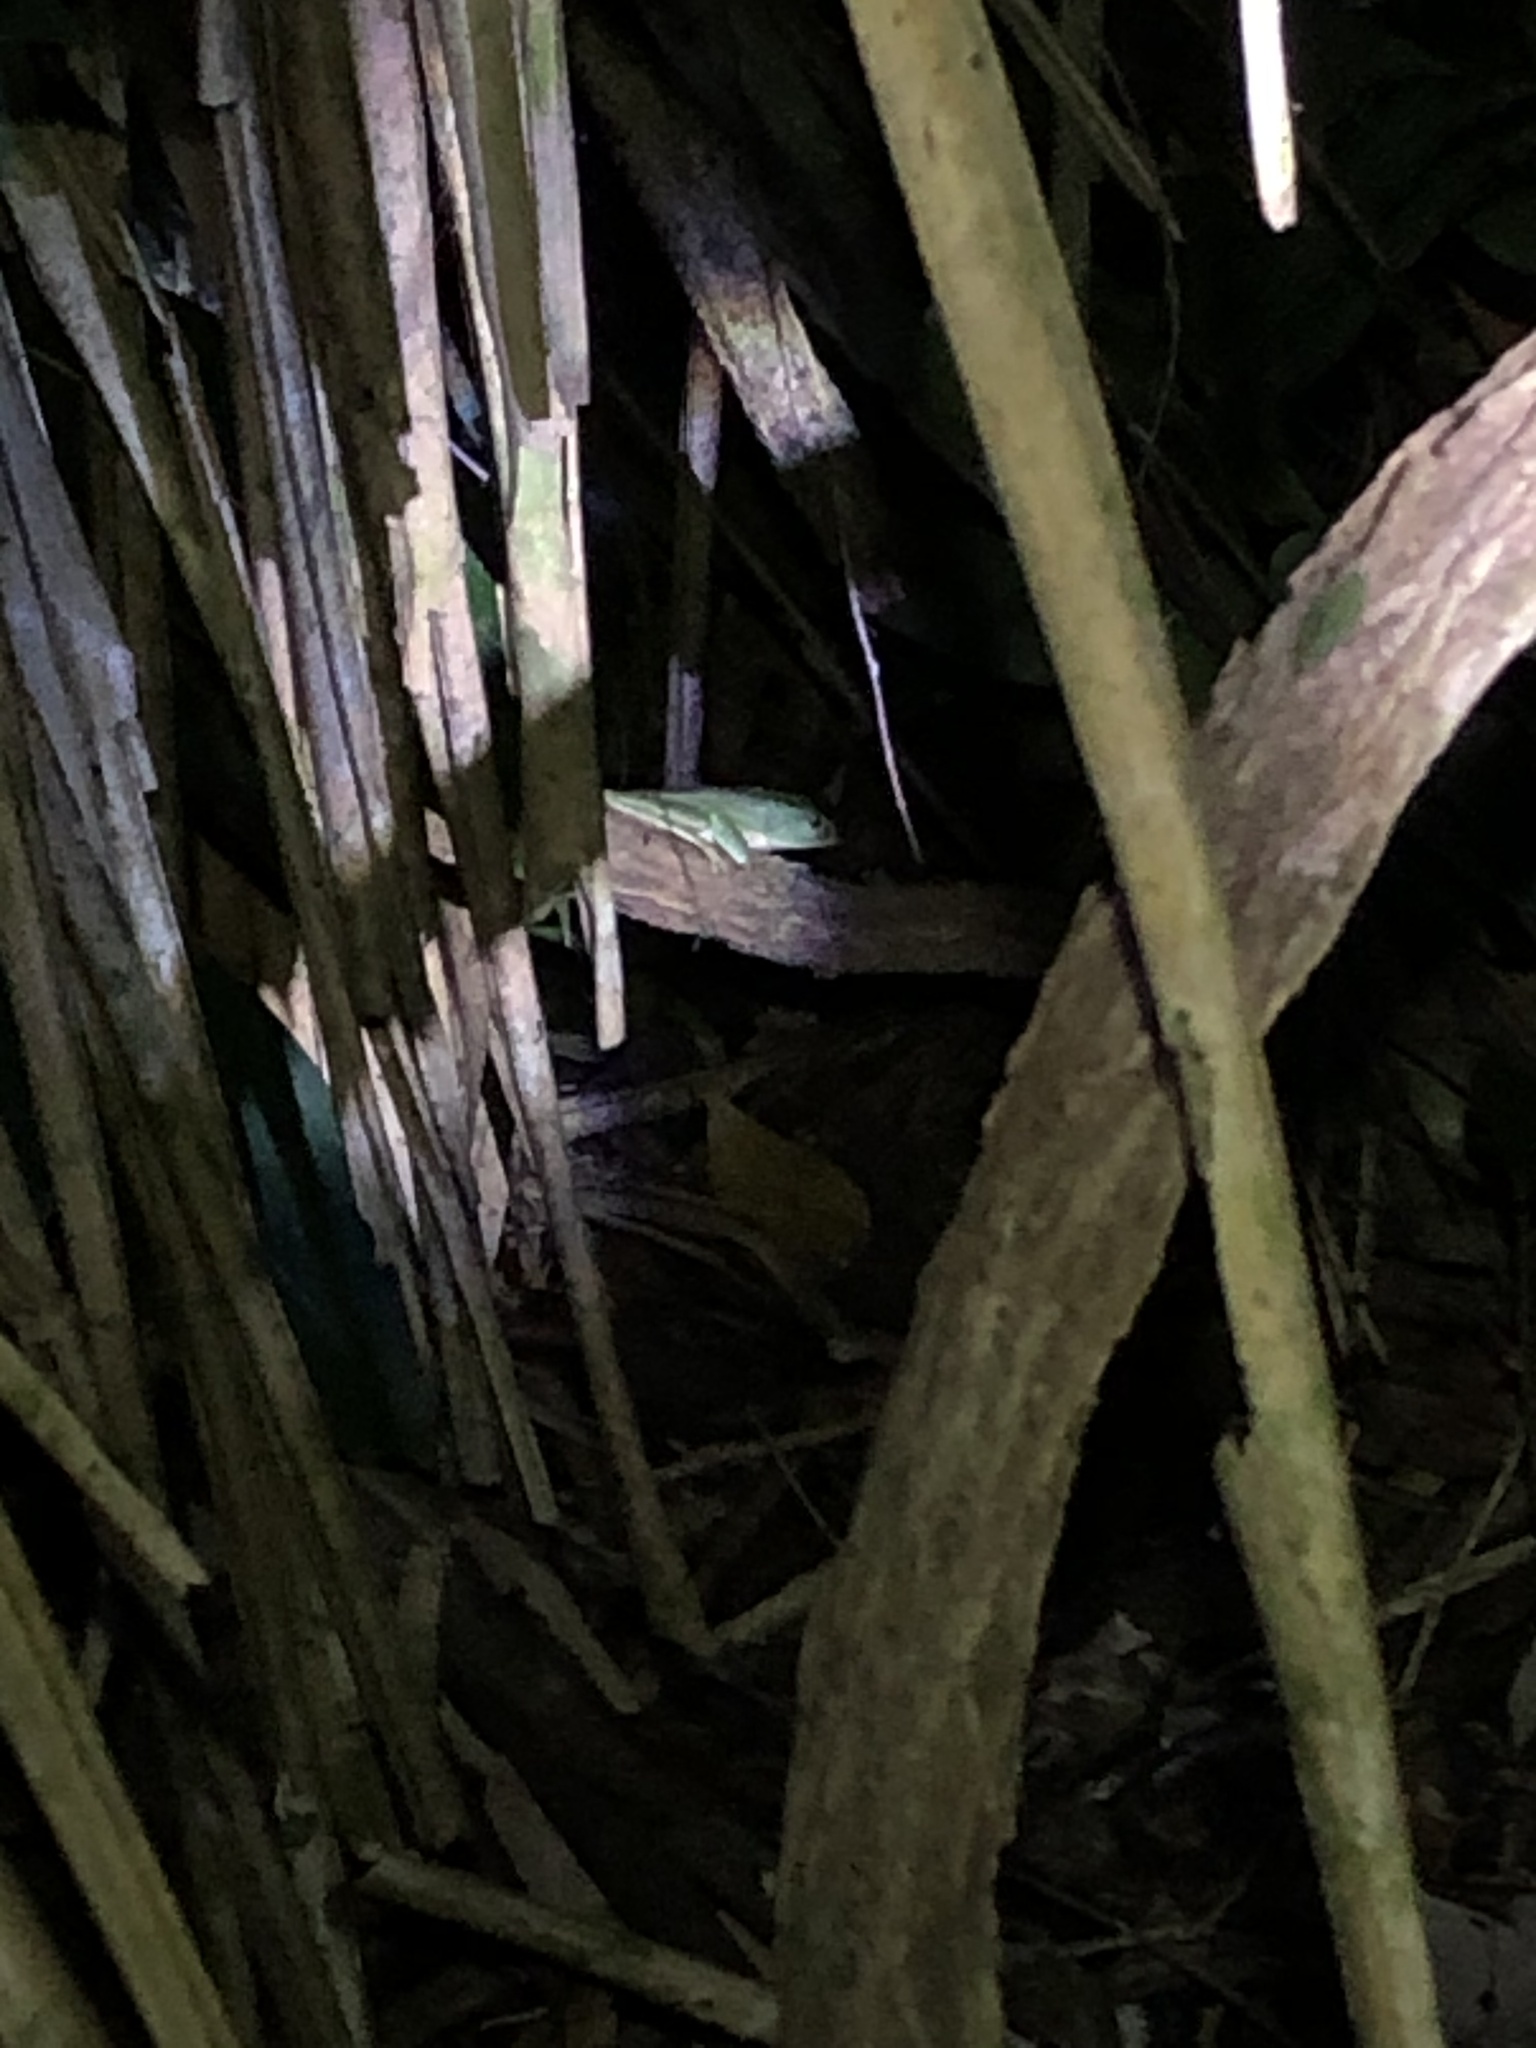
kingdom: Animalia
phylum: Chordata
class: Amphibia
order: Anura
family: Phyllomedusidae
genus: Phyllomedusa
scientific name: Phyllomedusa vaillantii
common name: White-lined leaf frog
